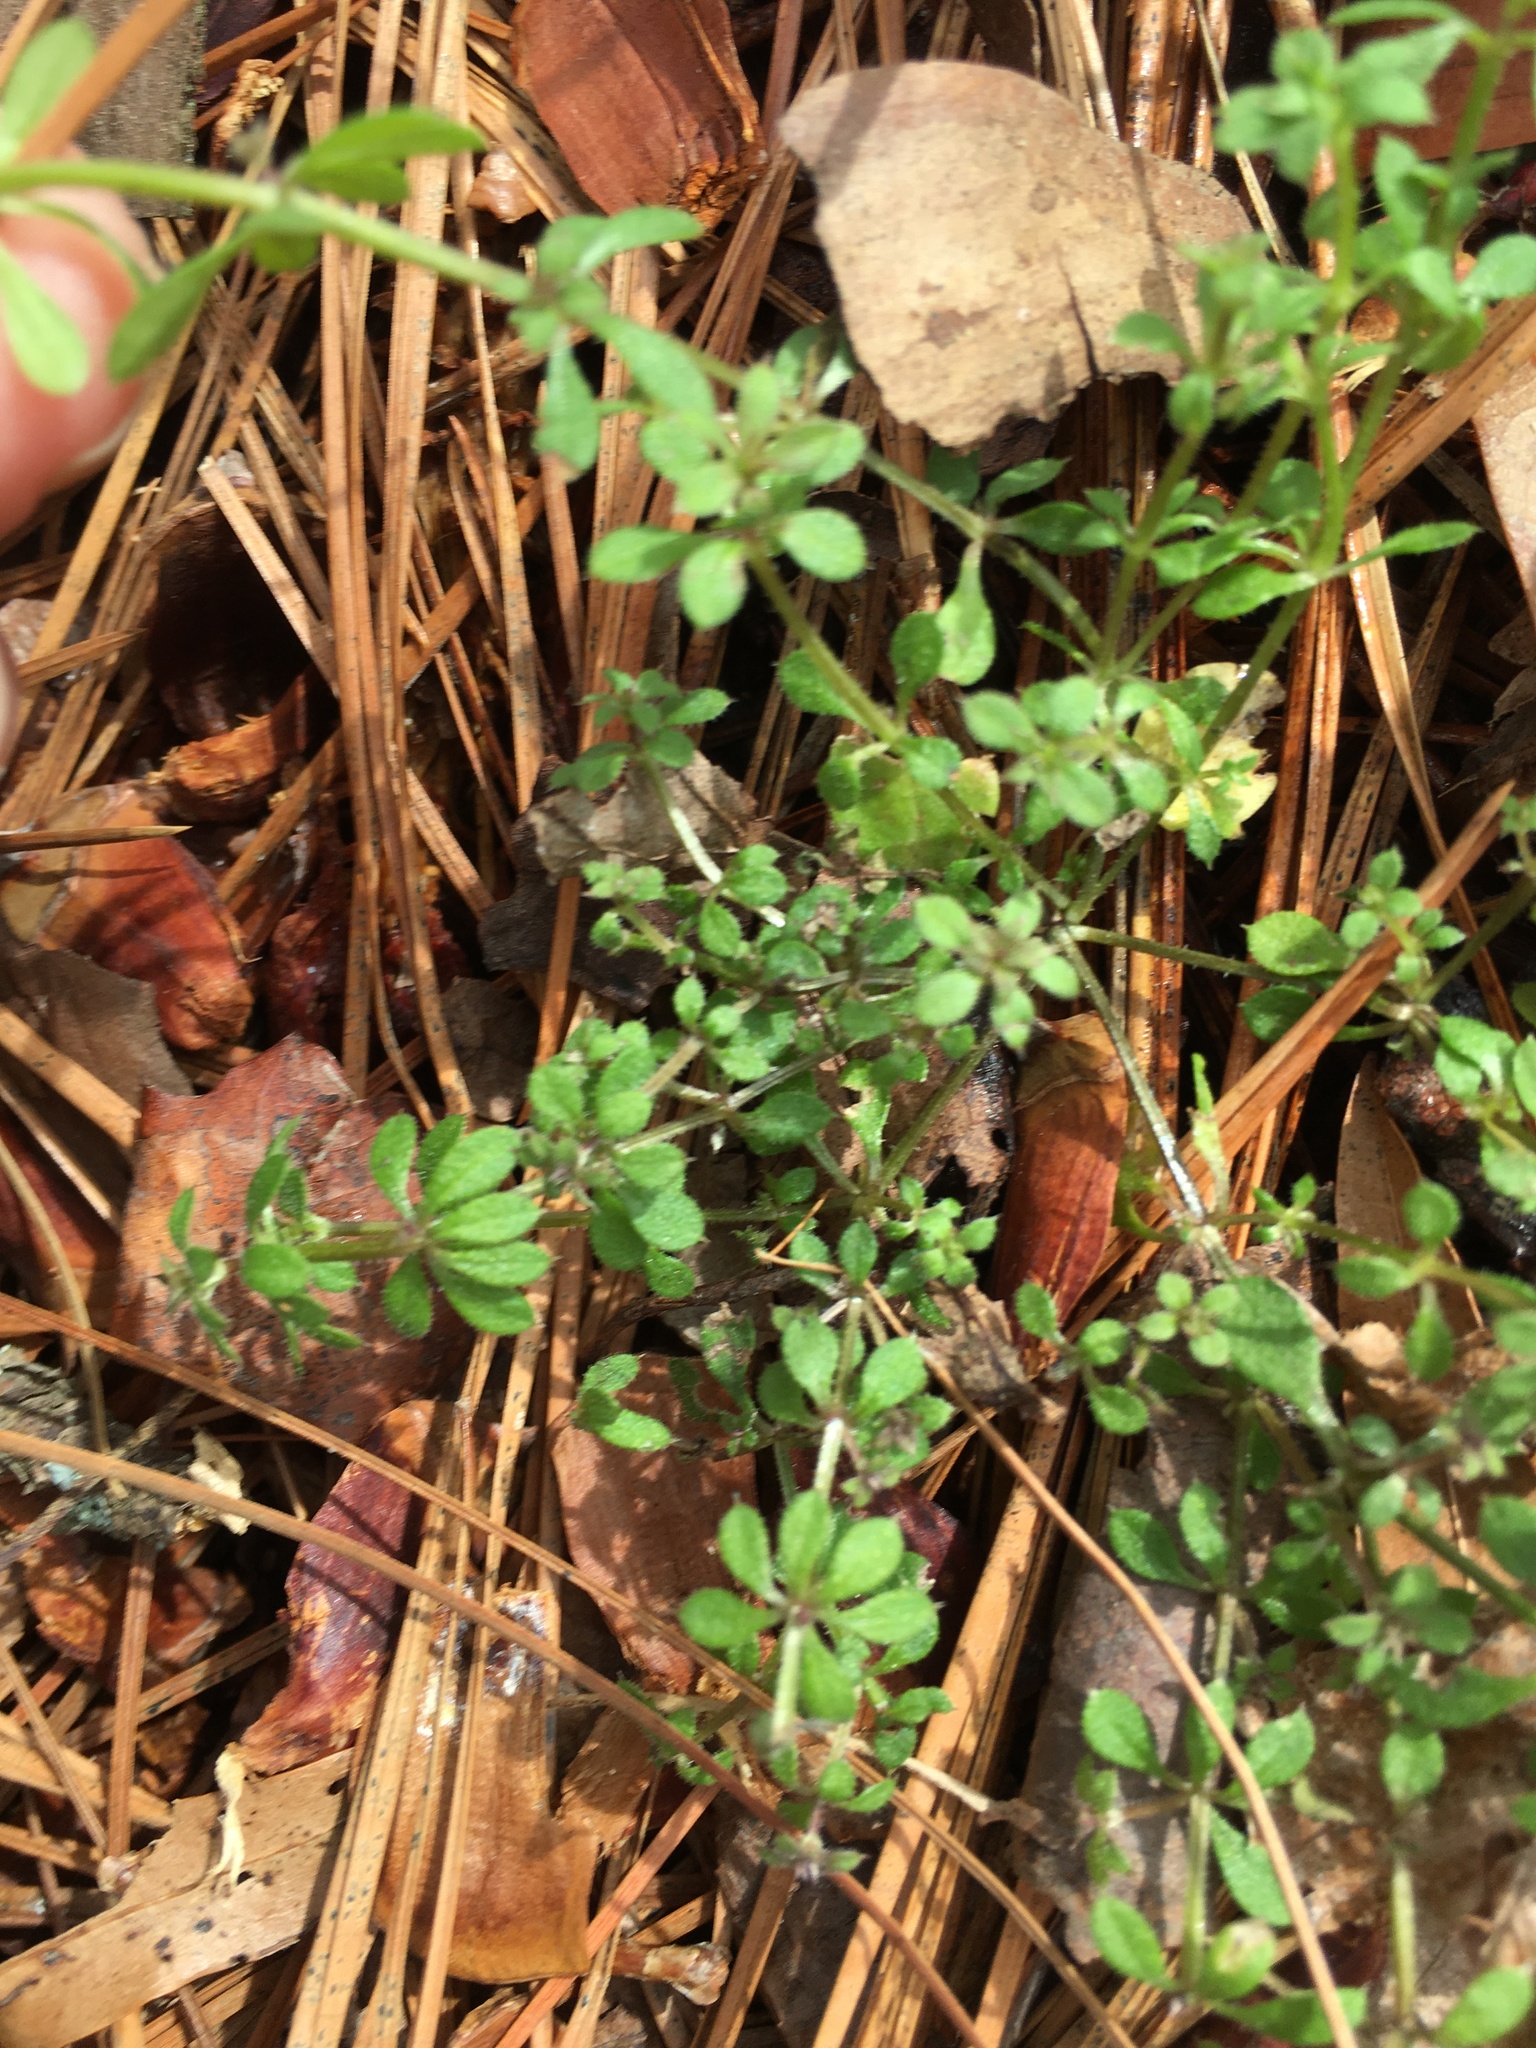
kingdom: Plantae
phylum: Tracheophyta
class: Magnoliopsida
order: Gentianales
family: Rubiaceae
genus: Galium
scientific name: Galium aparine
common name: Cleavers
